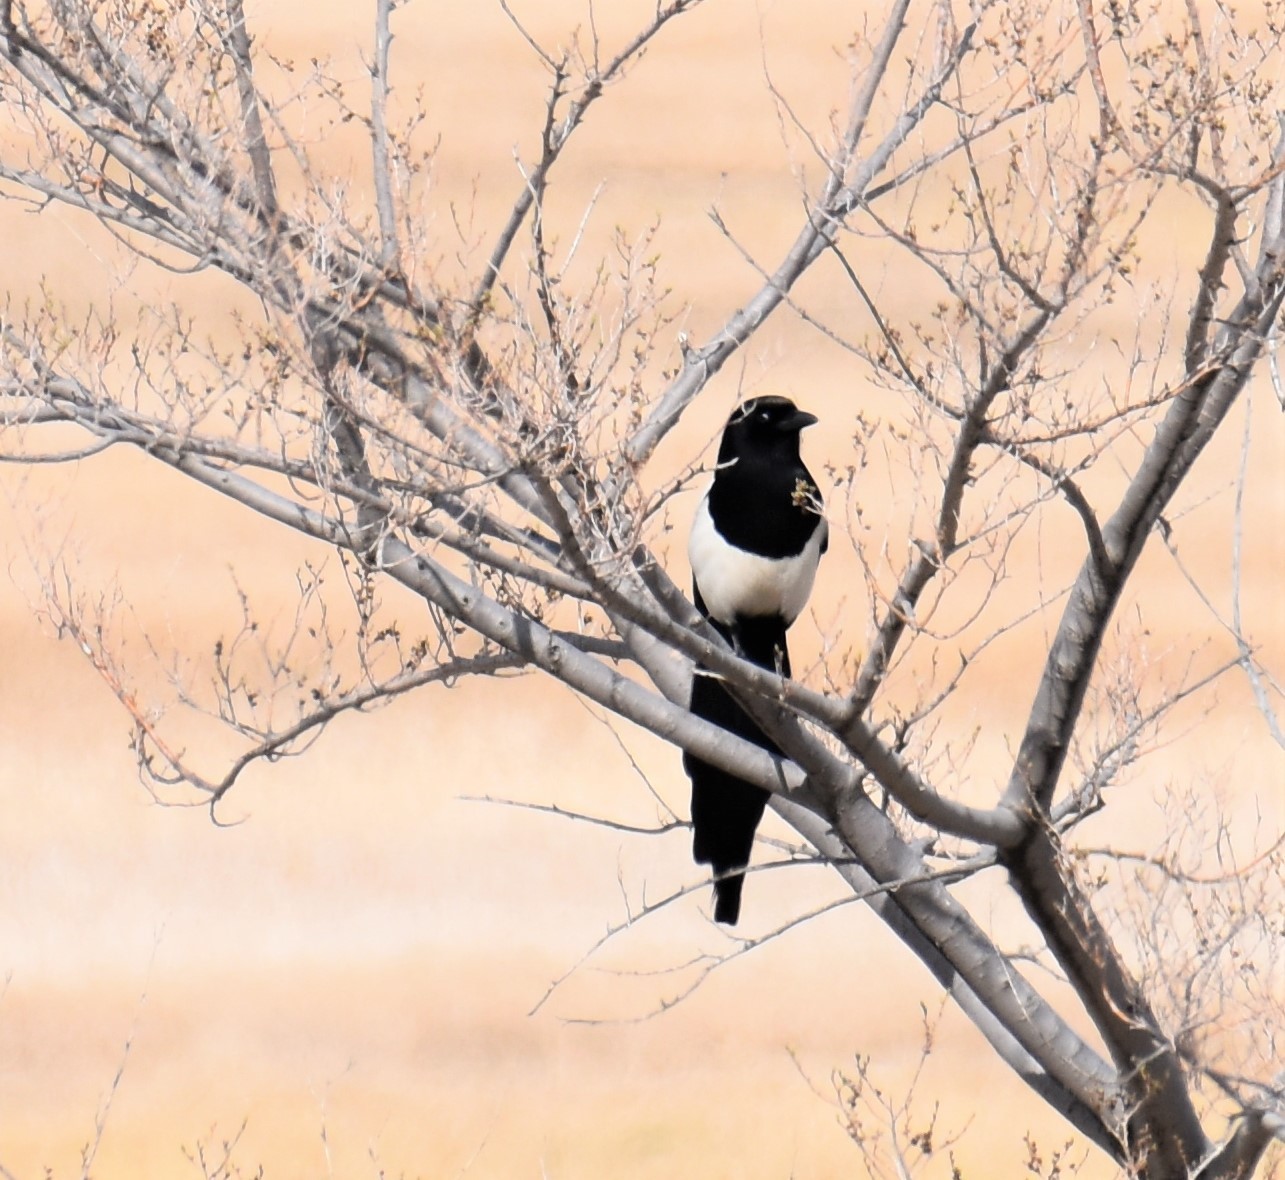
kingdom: Animalia
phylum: Chordata
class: Aves
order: Passeriformes
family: Corvidae
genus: Pica
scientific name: Pica hudsonia
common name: Black-billed magpie
